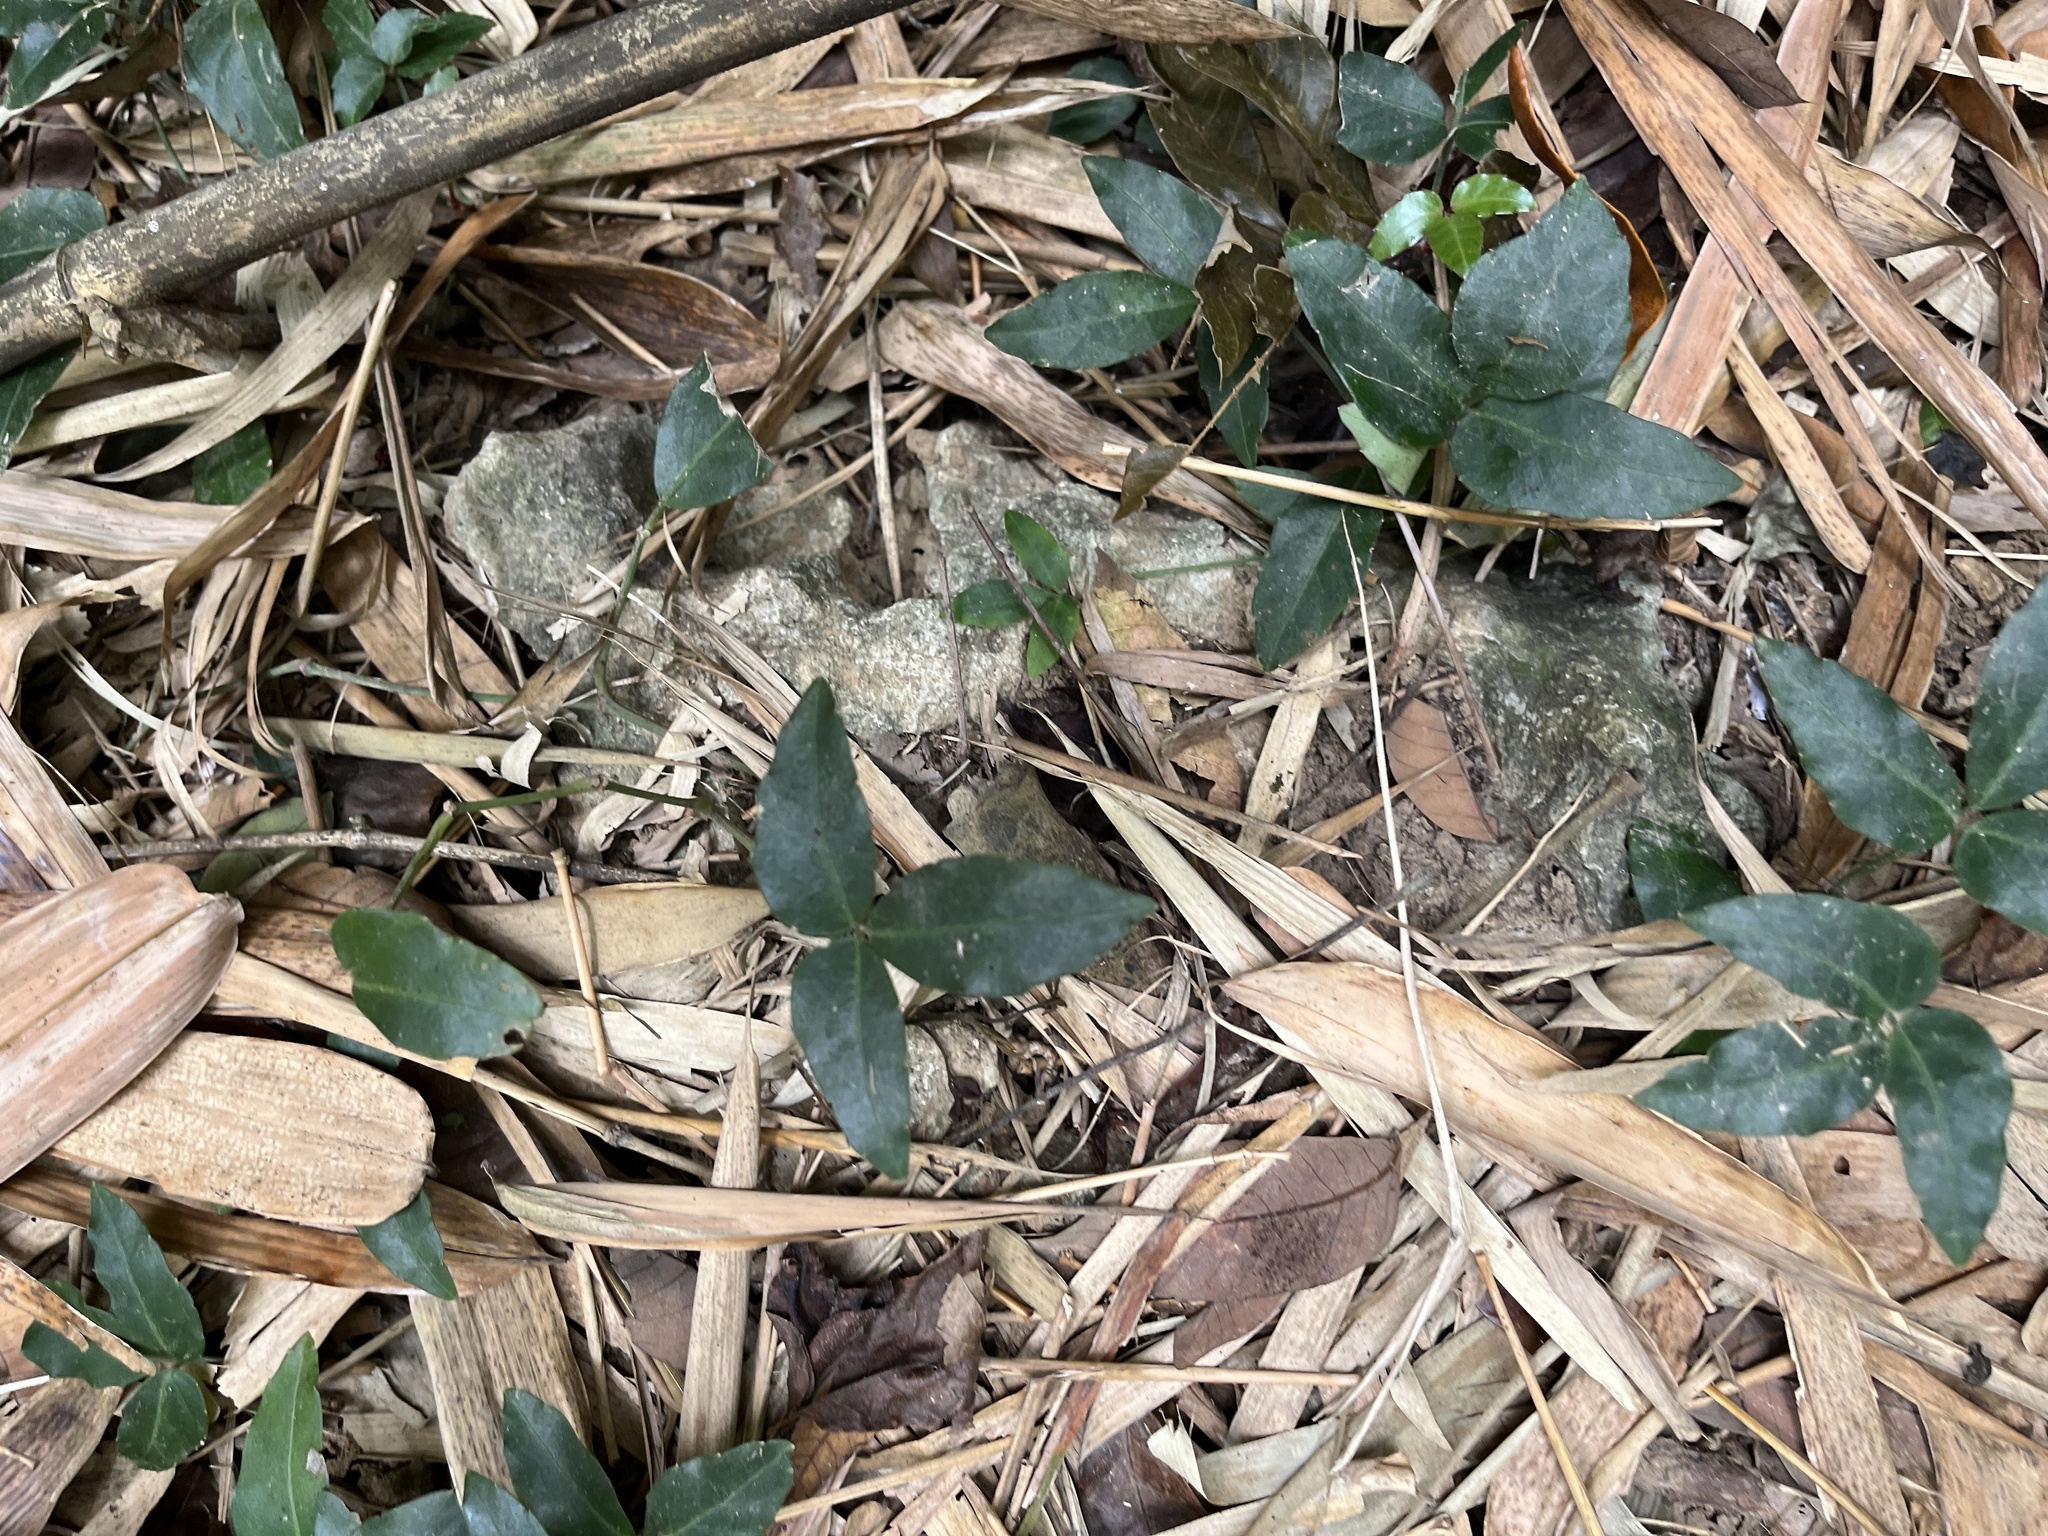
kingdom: Plantae
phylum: Tracheophyta
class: Magnoliopsida
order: Vitales
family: Vitaceae
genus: Tetrastigma
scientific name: Tetrastigma formosanum
